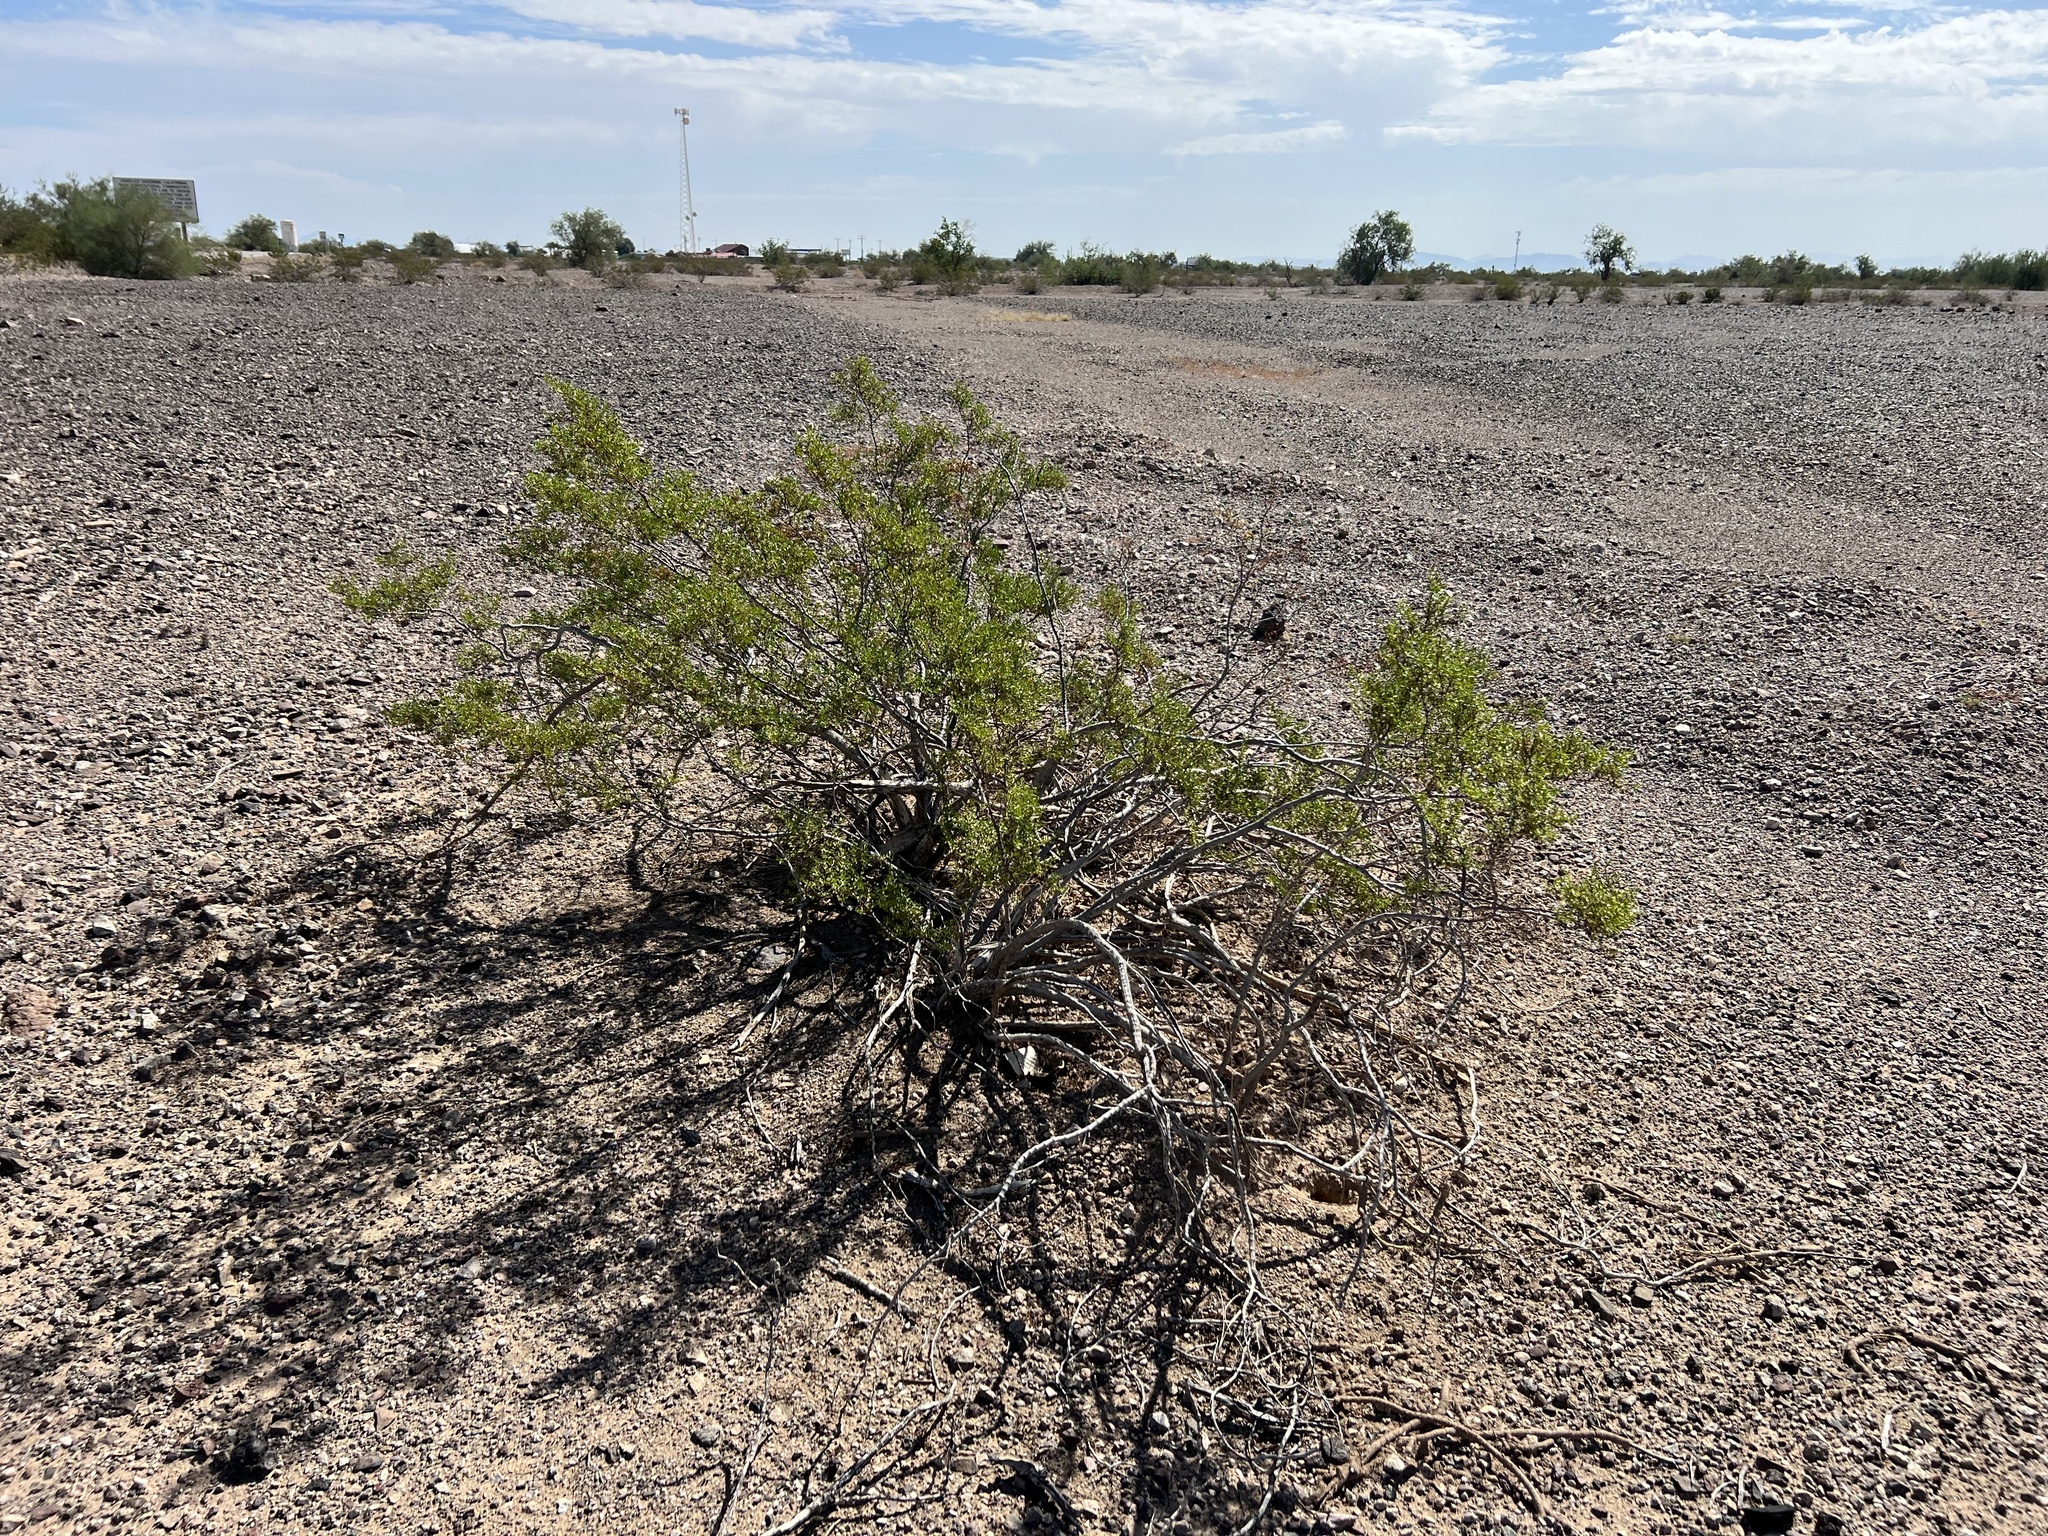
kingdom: Plantae
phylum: Tracheophyta
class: Magnoliopsida
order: Zygophyllales
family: Zygophyllaceae
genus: Larrea
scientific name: Larrea tridentata
